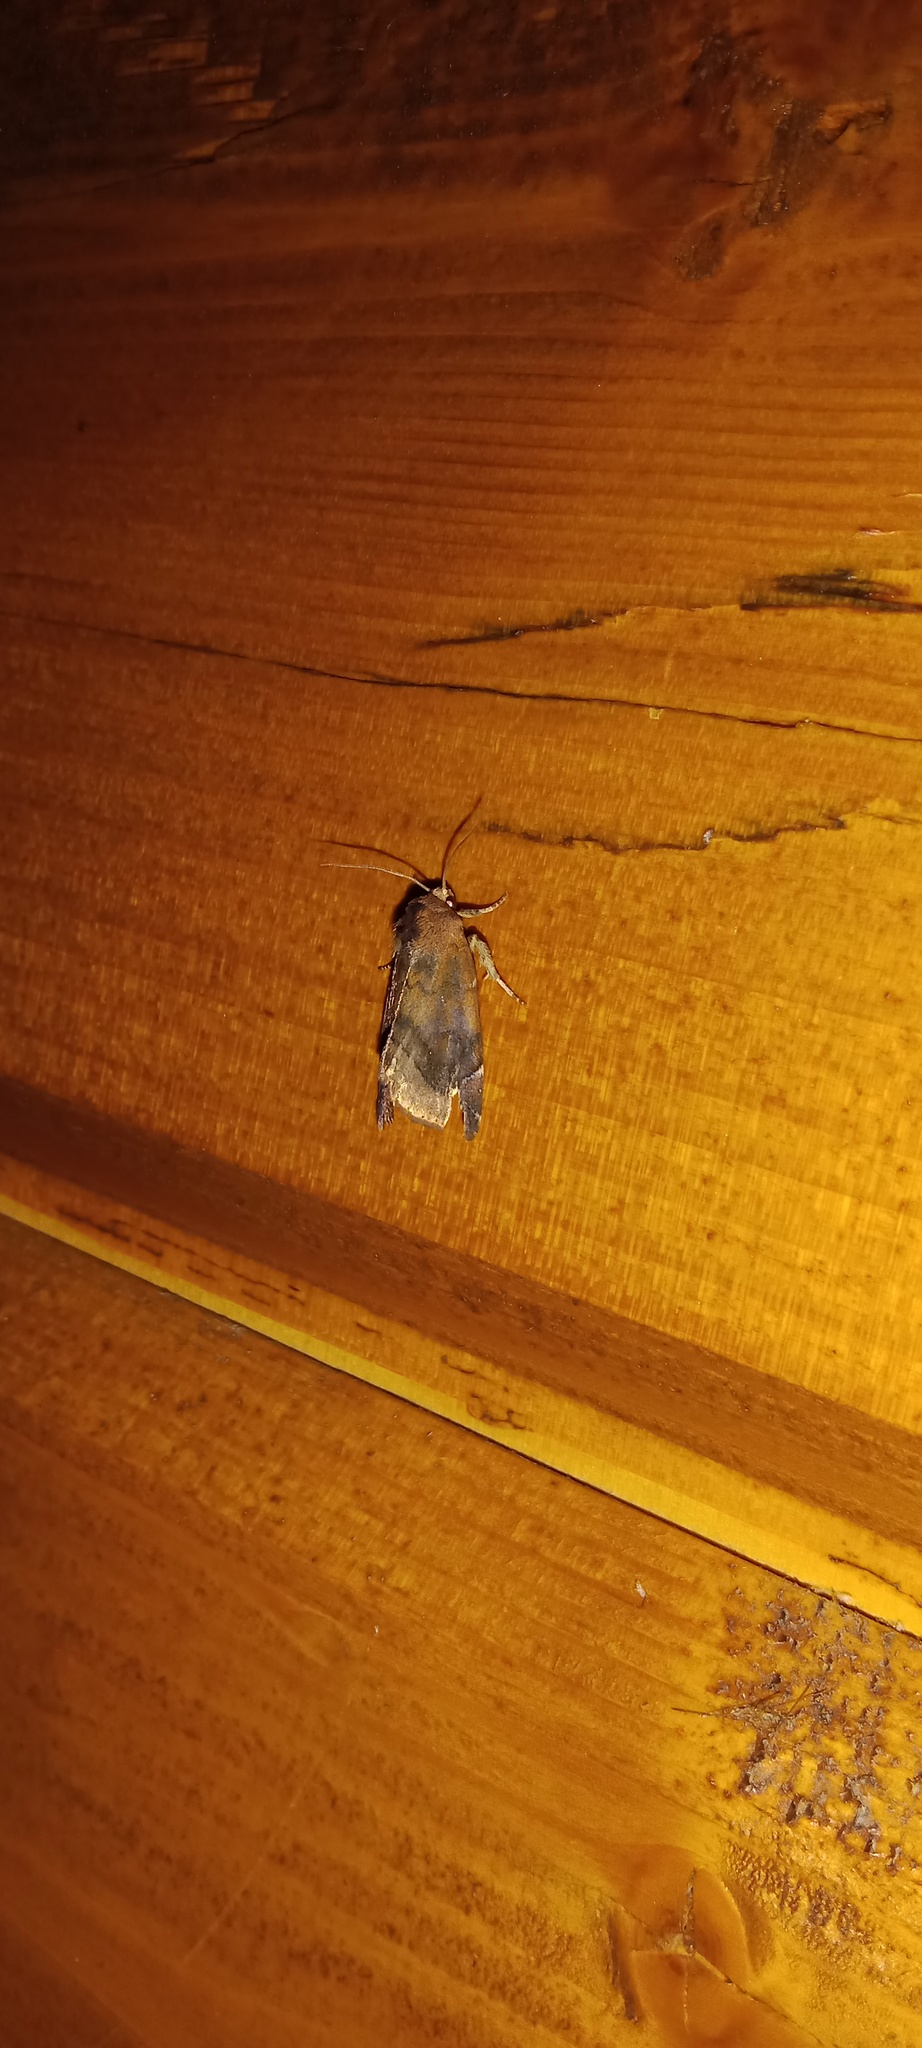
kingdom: Animalia
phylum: Arthropoda
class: Insecta
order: Lepidoptera
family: Noctuidae
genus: Cosmia
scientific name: Cosmia pyralina
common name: Lunar-spotted pinion
